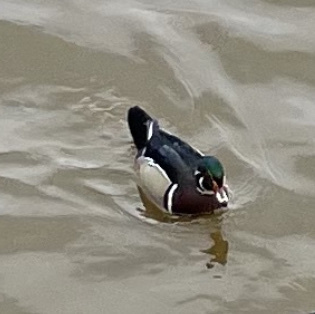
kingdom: Animalia
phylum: Chordata
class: Aves
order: Anseriformes
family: Anatidae
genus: Aix
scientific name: Aix sponsa
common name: Wood duck
